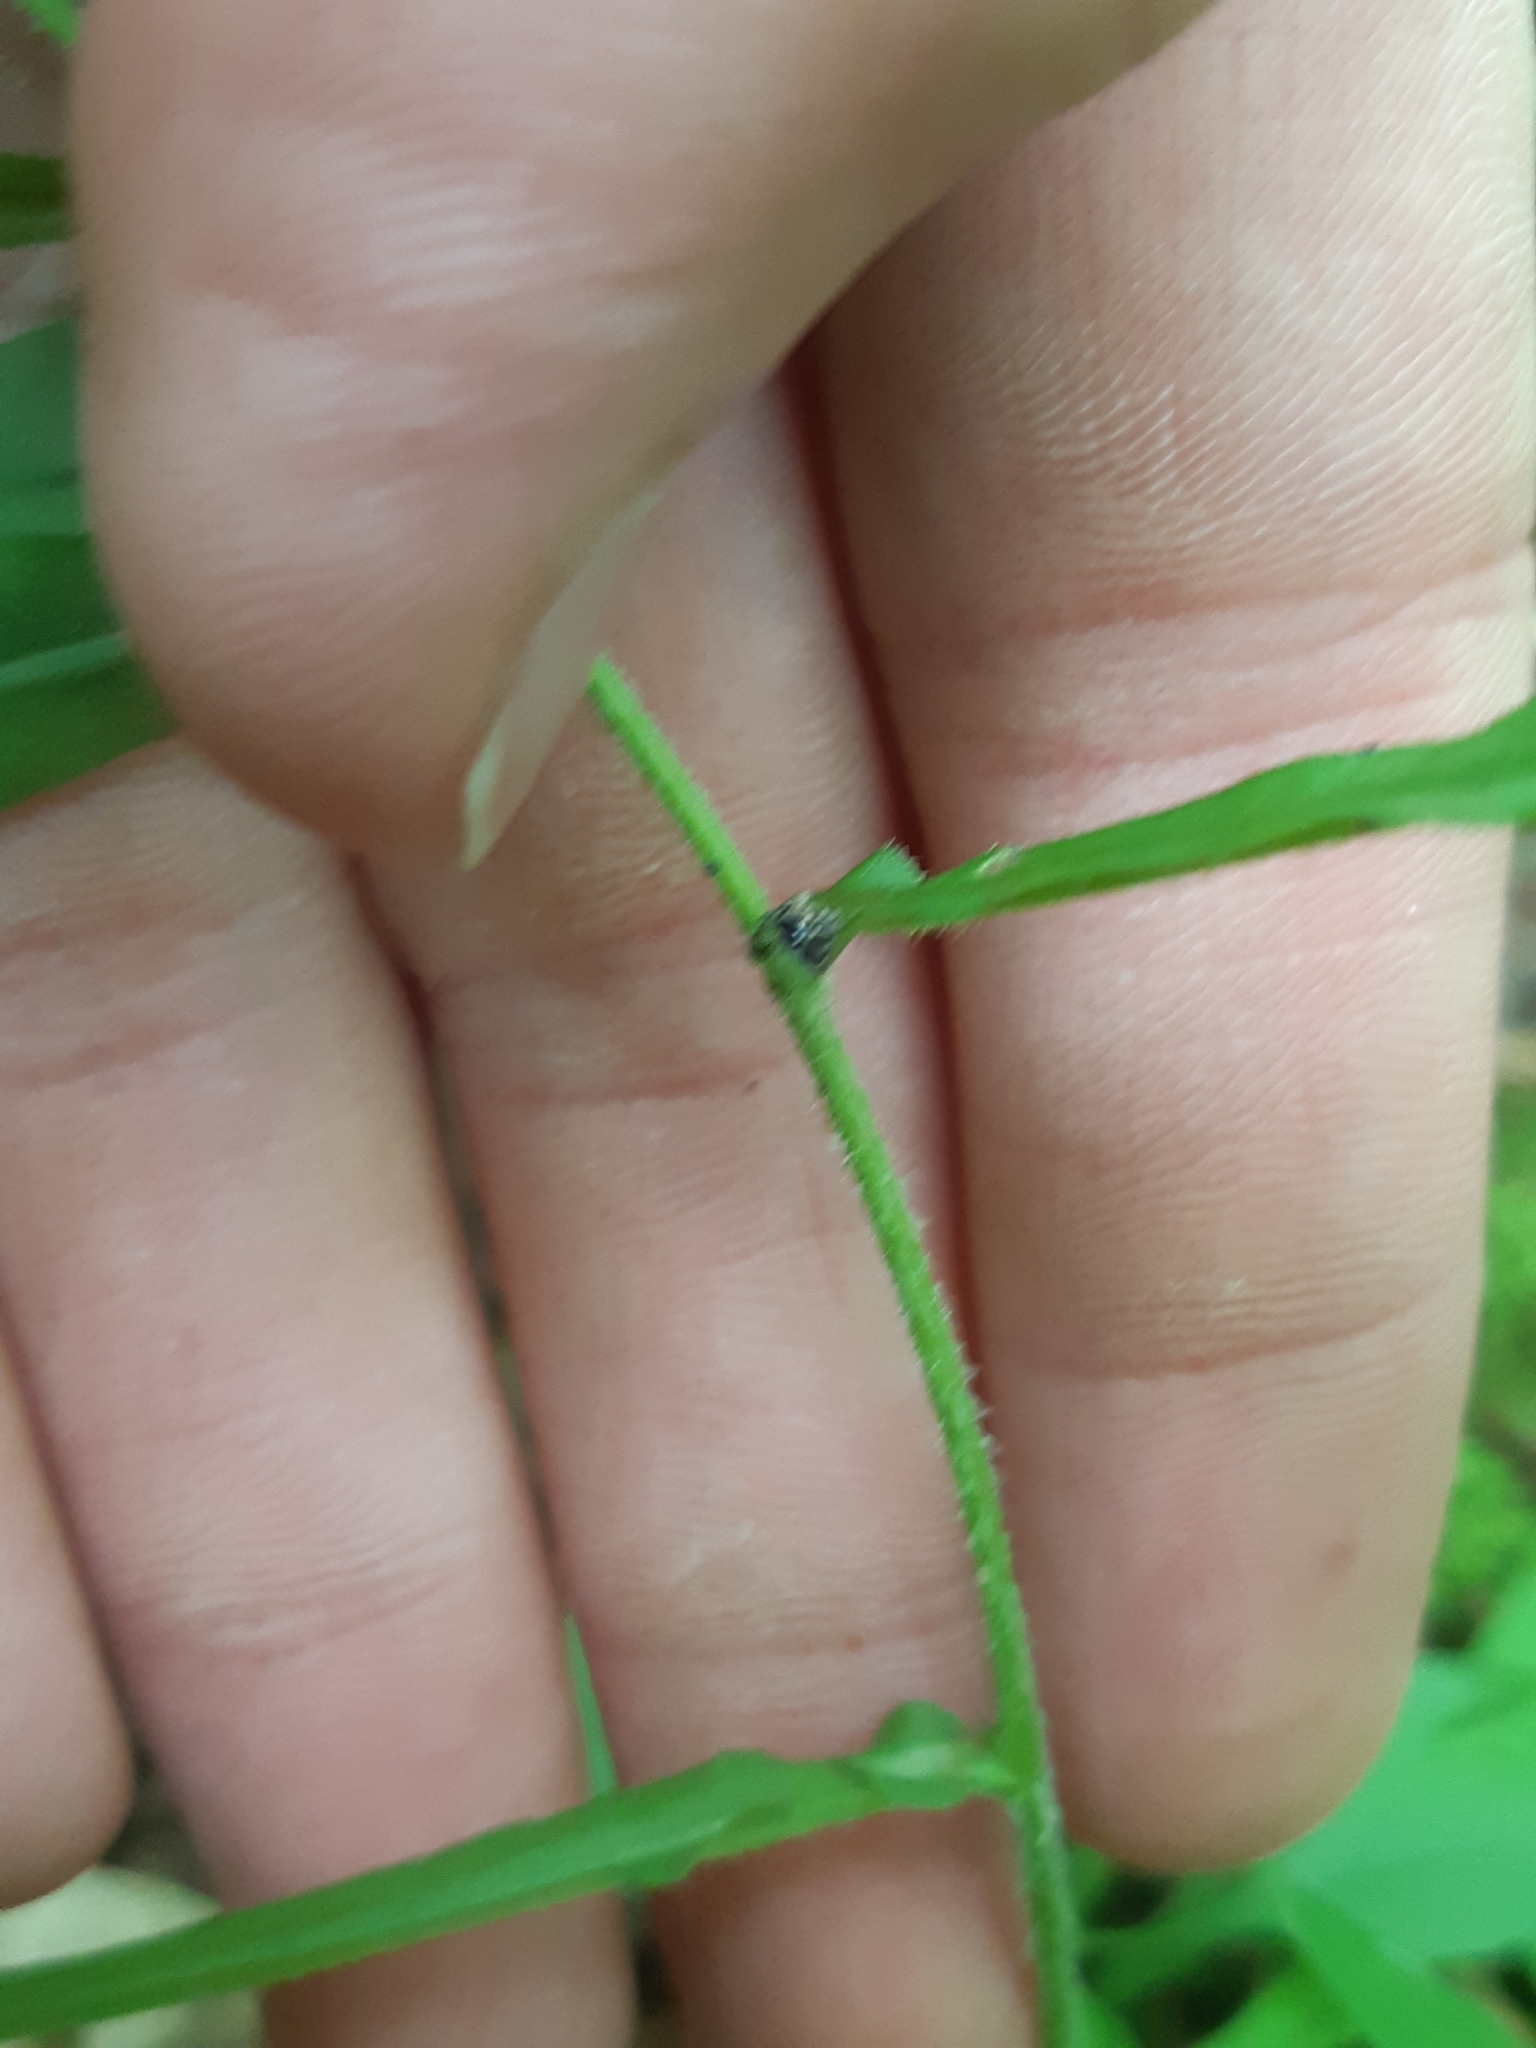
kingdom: Plantae
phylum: Tracheophyta
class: Magnoliopsida
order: Asterales
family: Asteraceae
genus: Symphyotrichum
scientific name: Symphyotrichum lateriflorum
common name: Calico aster
